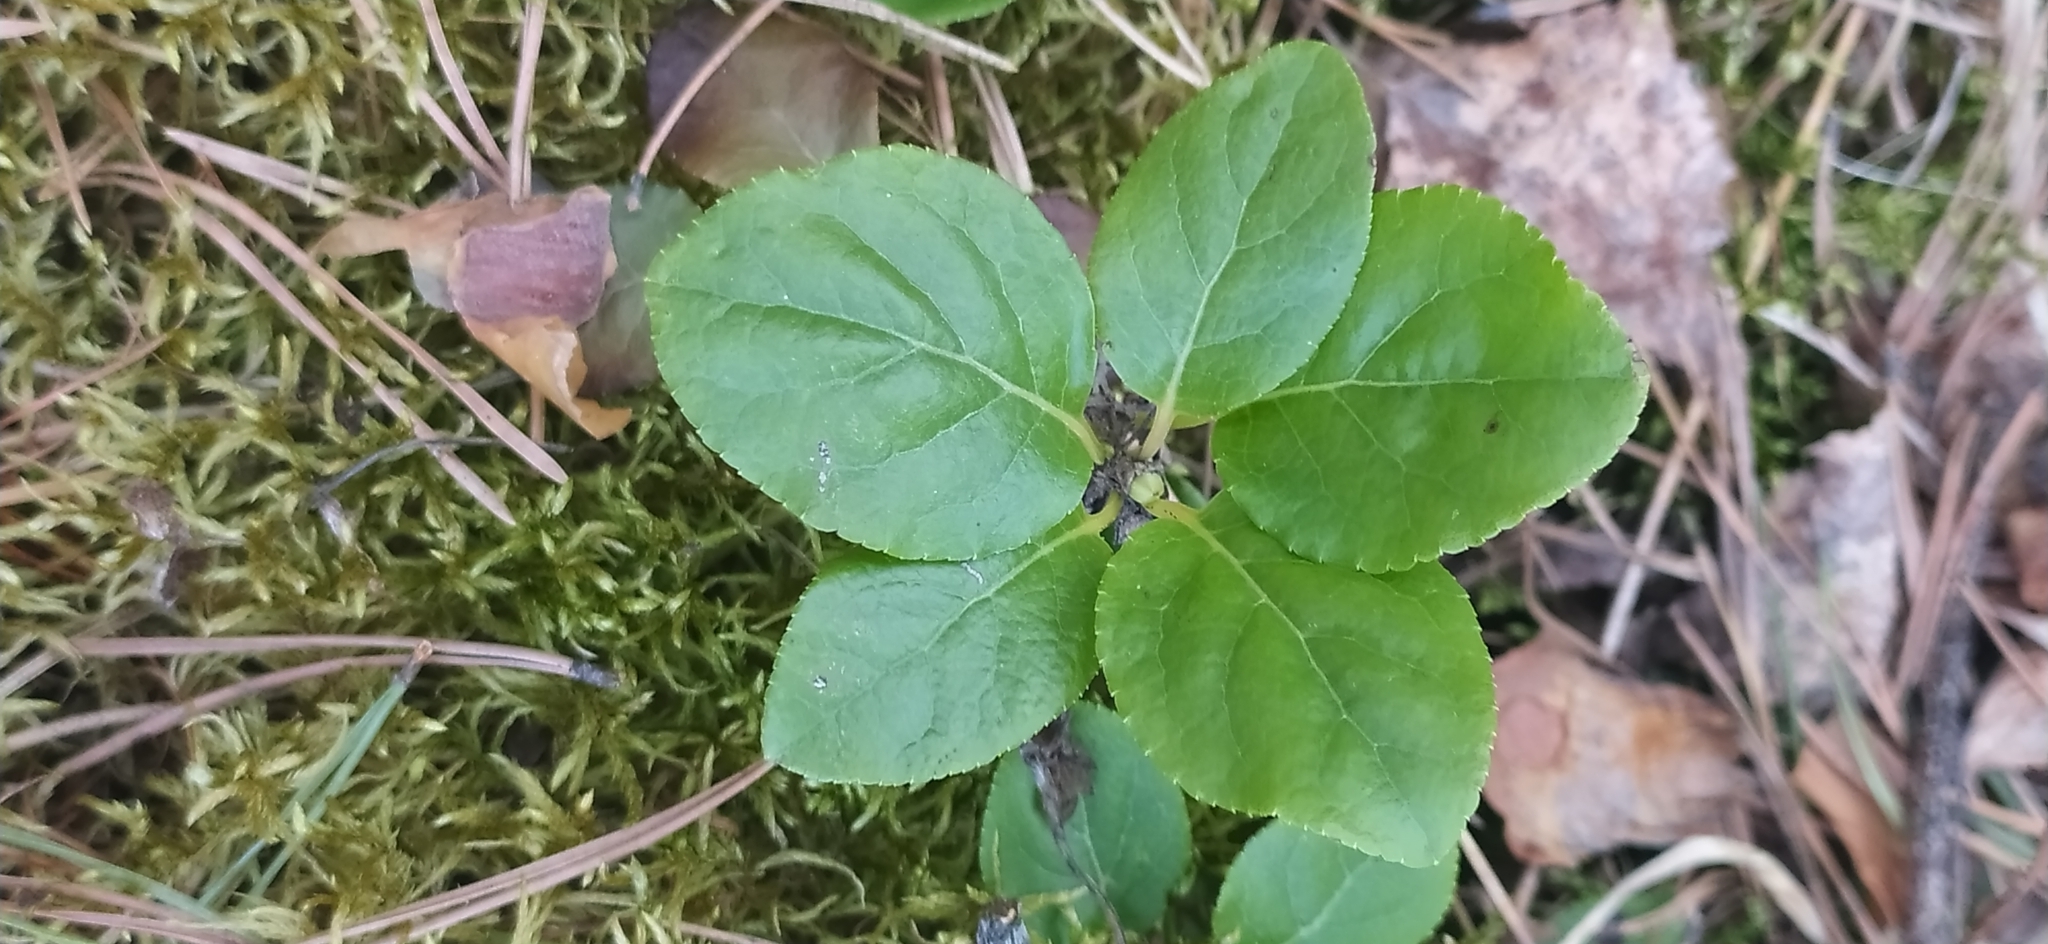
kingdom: Plantae
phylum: Tracheophyta
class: Magnoliopsida
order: Ericales
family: Ericaceae
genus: Orthilia
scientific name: Orthilia secunda
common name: One-sided orthilia
